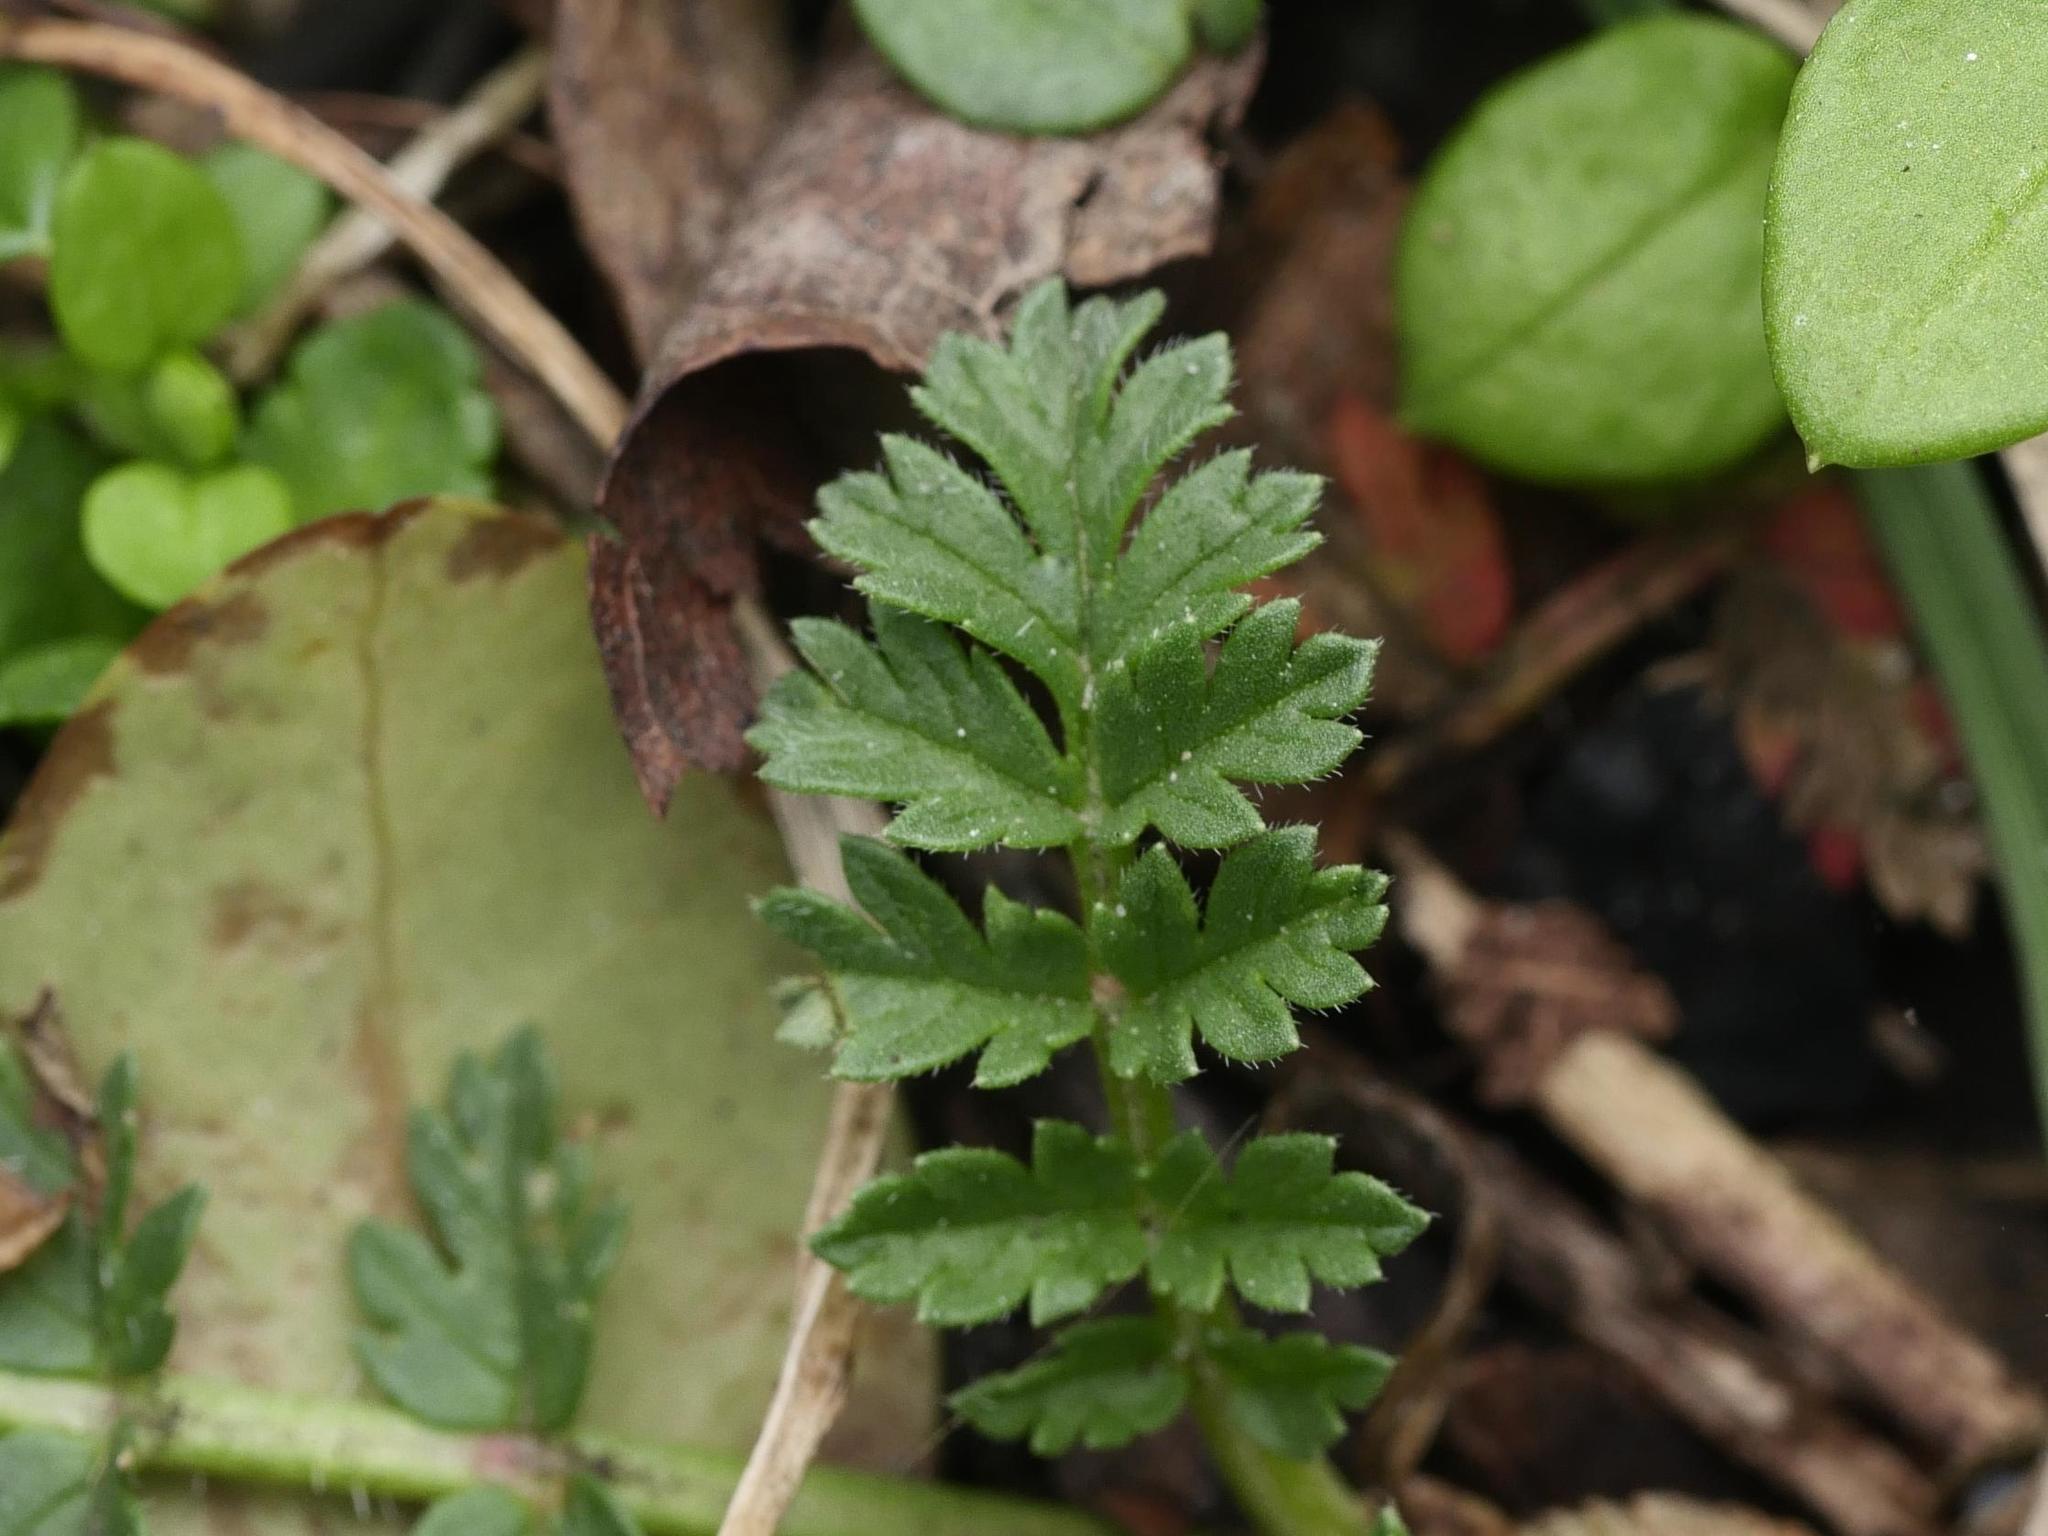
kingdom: Plantae
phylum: Tracheophyta
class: Magnoliopsida
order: Geraniales
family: Geraniaceae
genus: Erodium
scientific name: Erodium cicutarium
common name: Common stork's-bill
